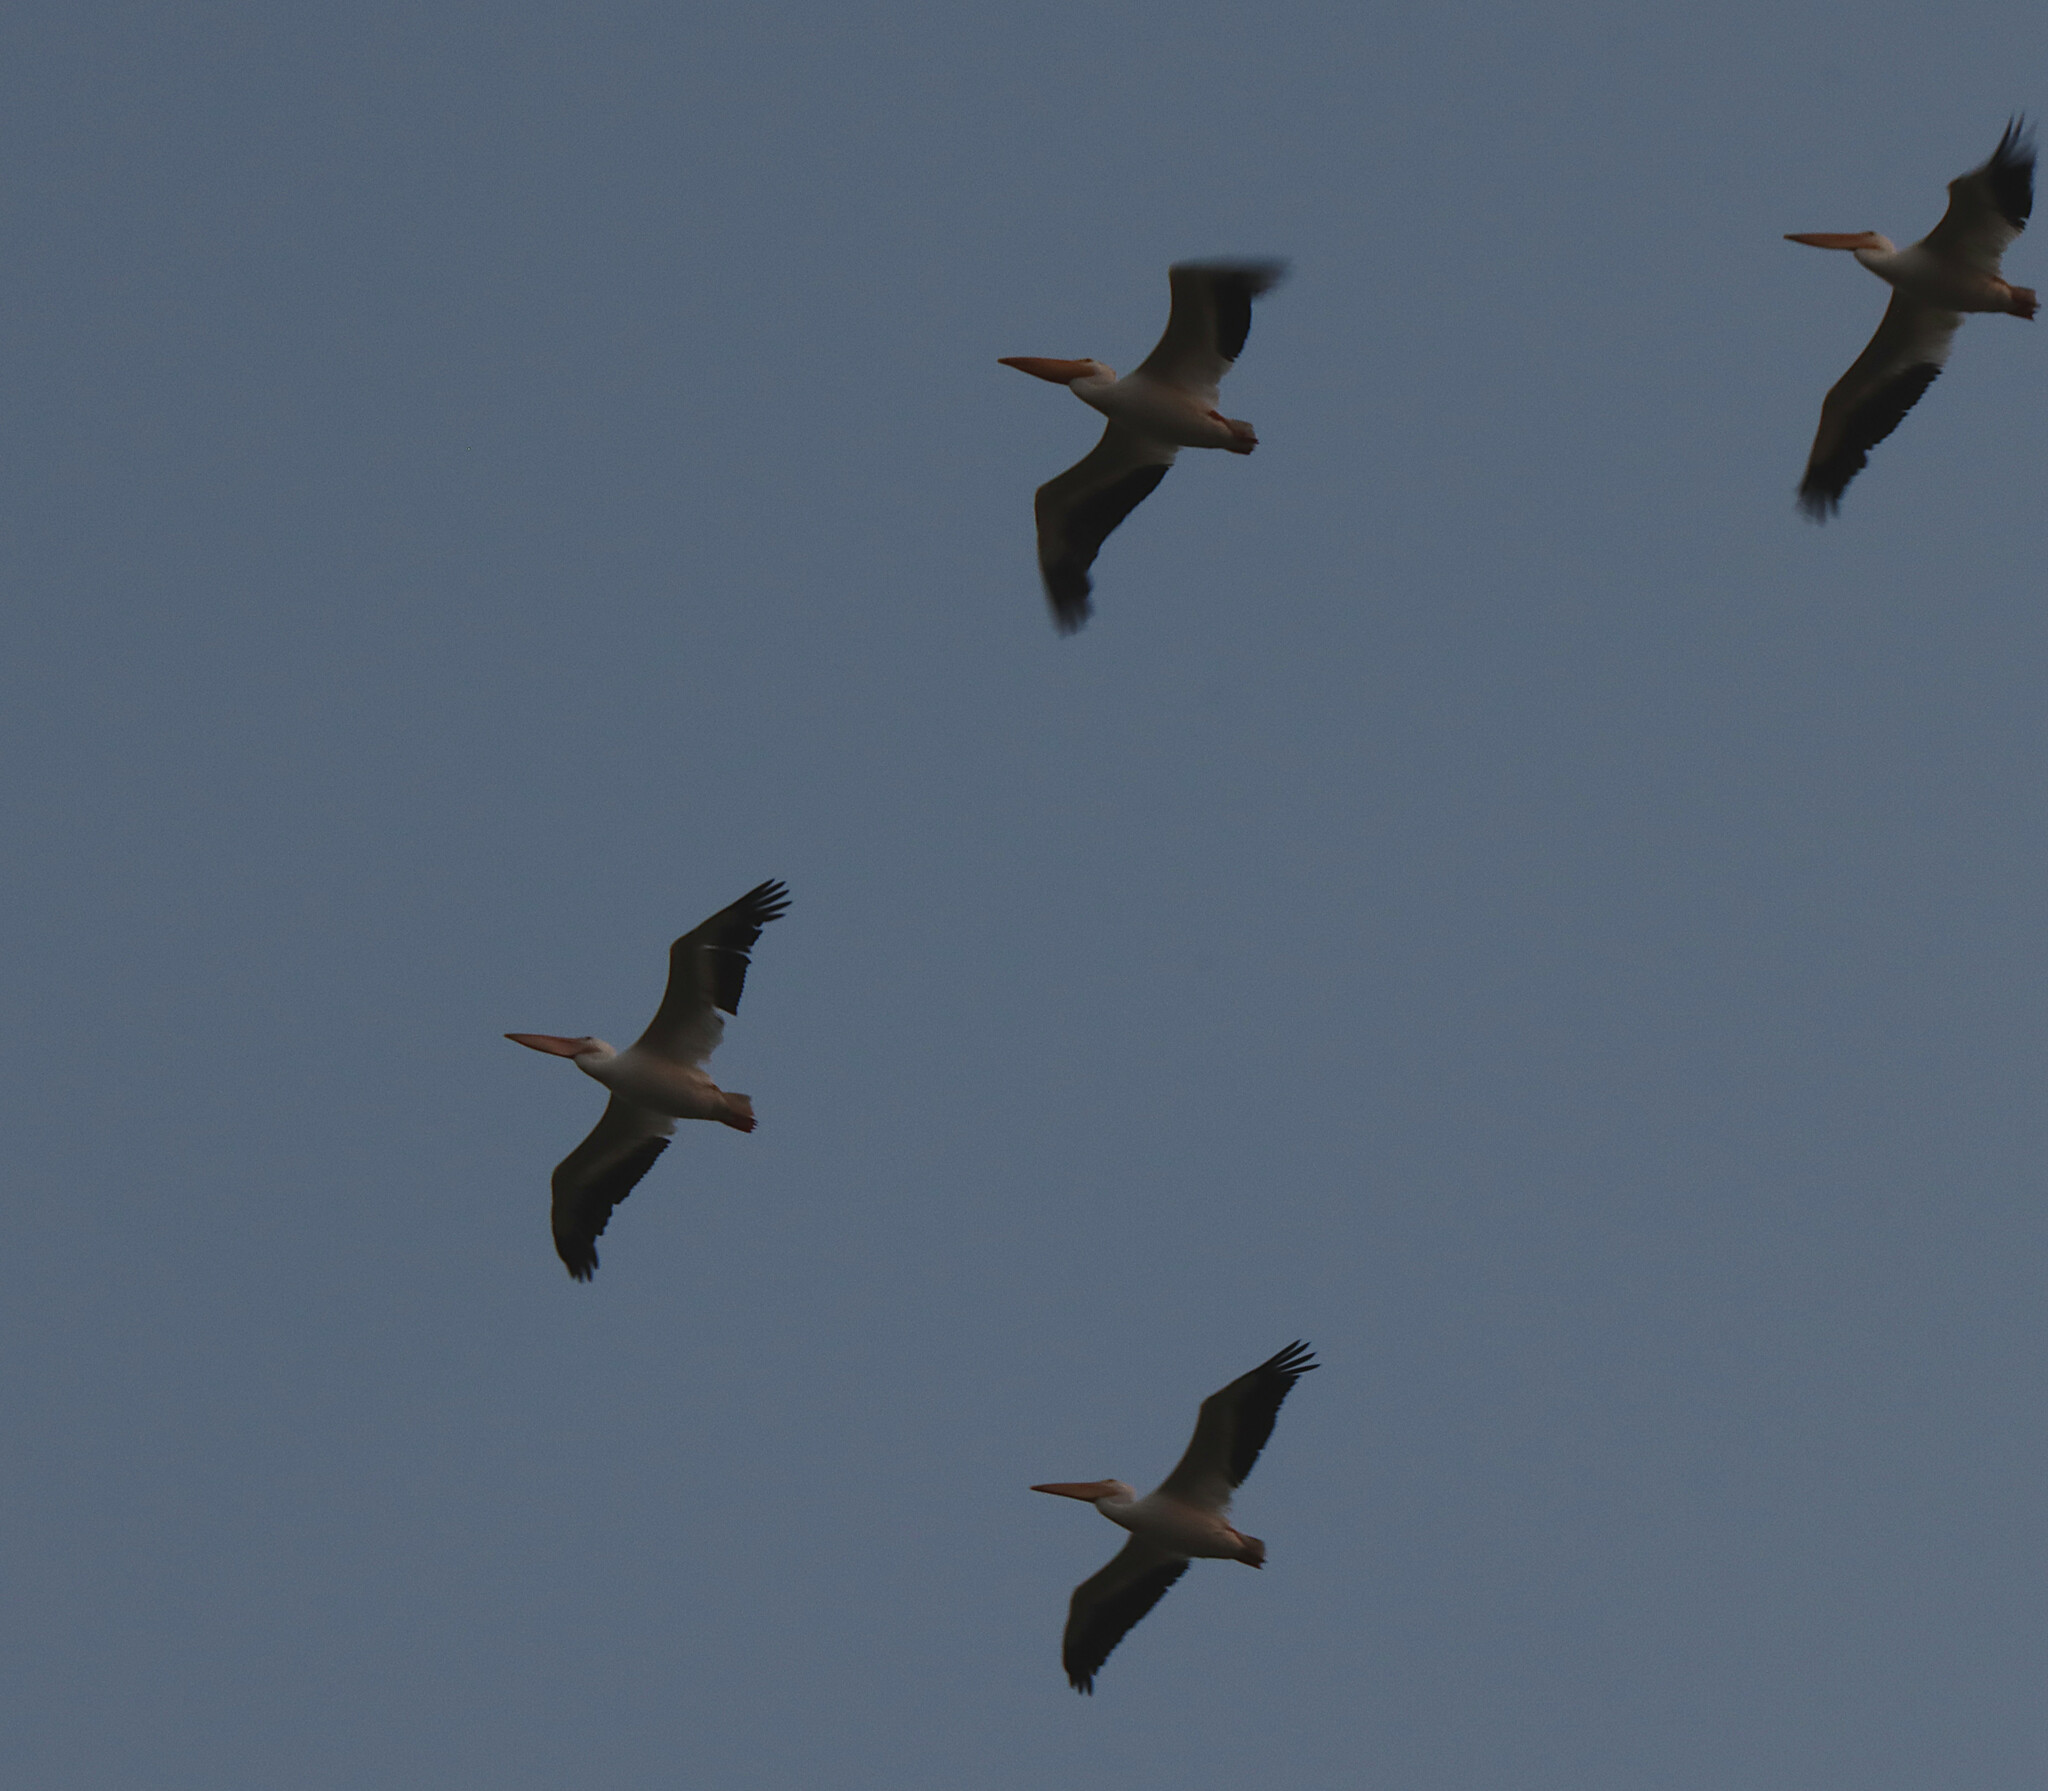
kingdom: Animalia
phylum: Chordata
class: Aves
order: Pelecaniformes
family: Pelecanidae
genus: Pelecanus
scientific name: Pelecanus erythrorhynchos
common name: American white pelican
